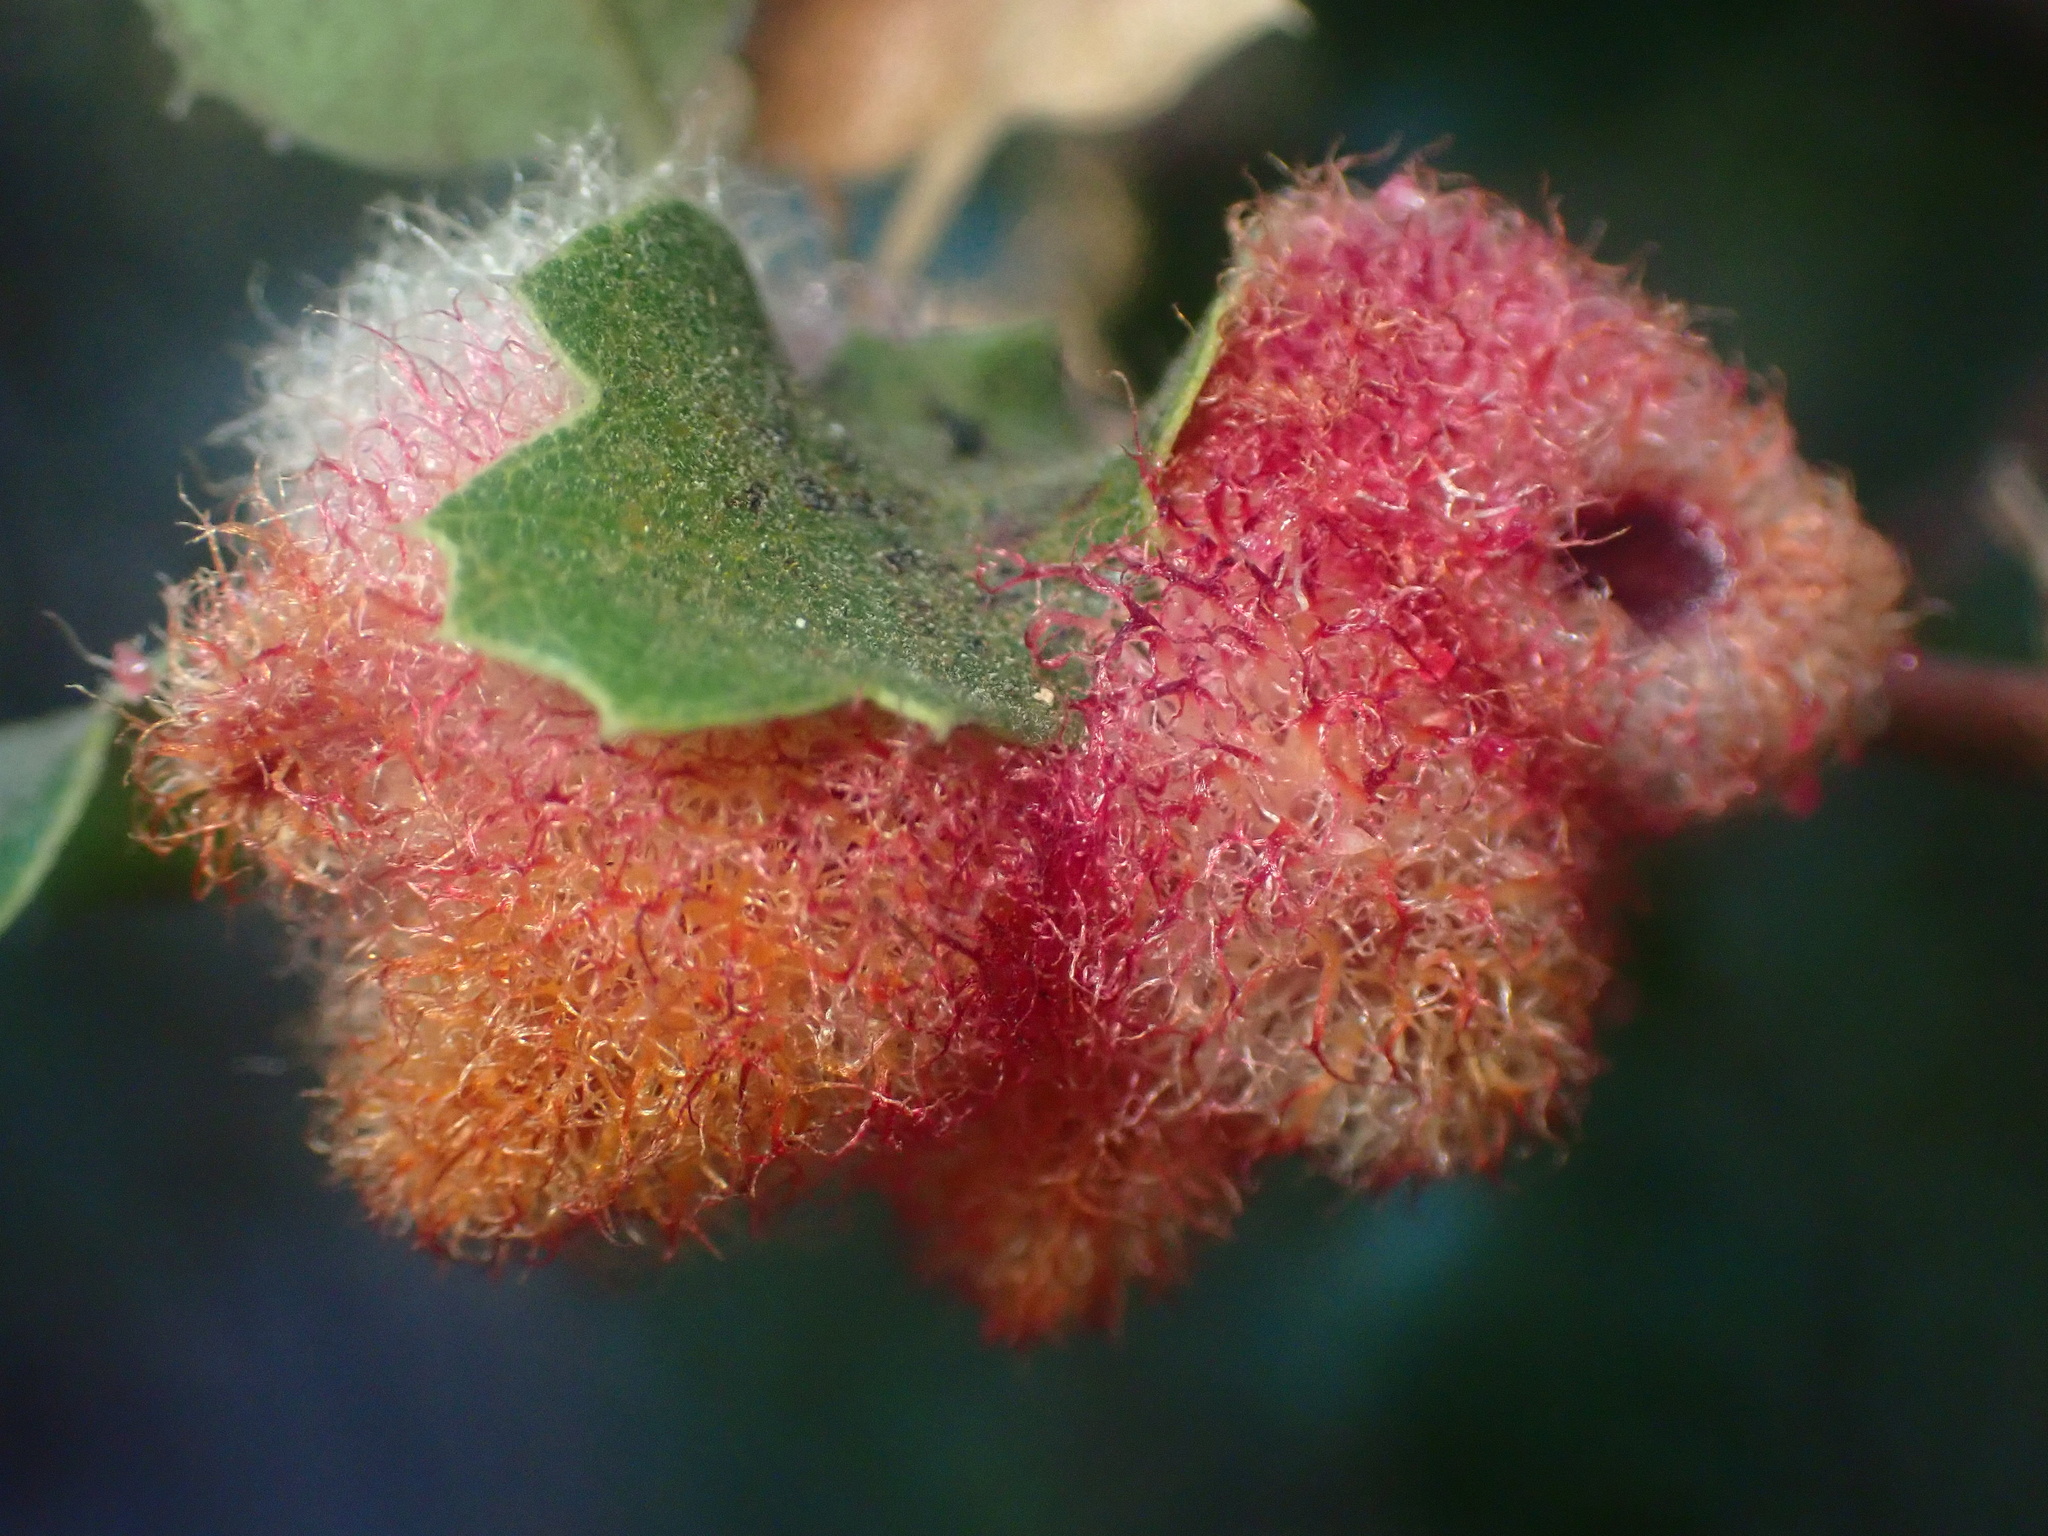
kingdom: Animalia
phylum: Arthropoda
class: Insecta
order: Hymenoptera
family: Cynipidae
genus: Andricus
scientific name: Andricus
